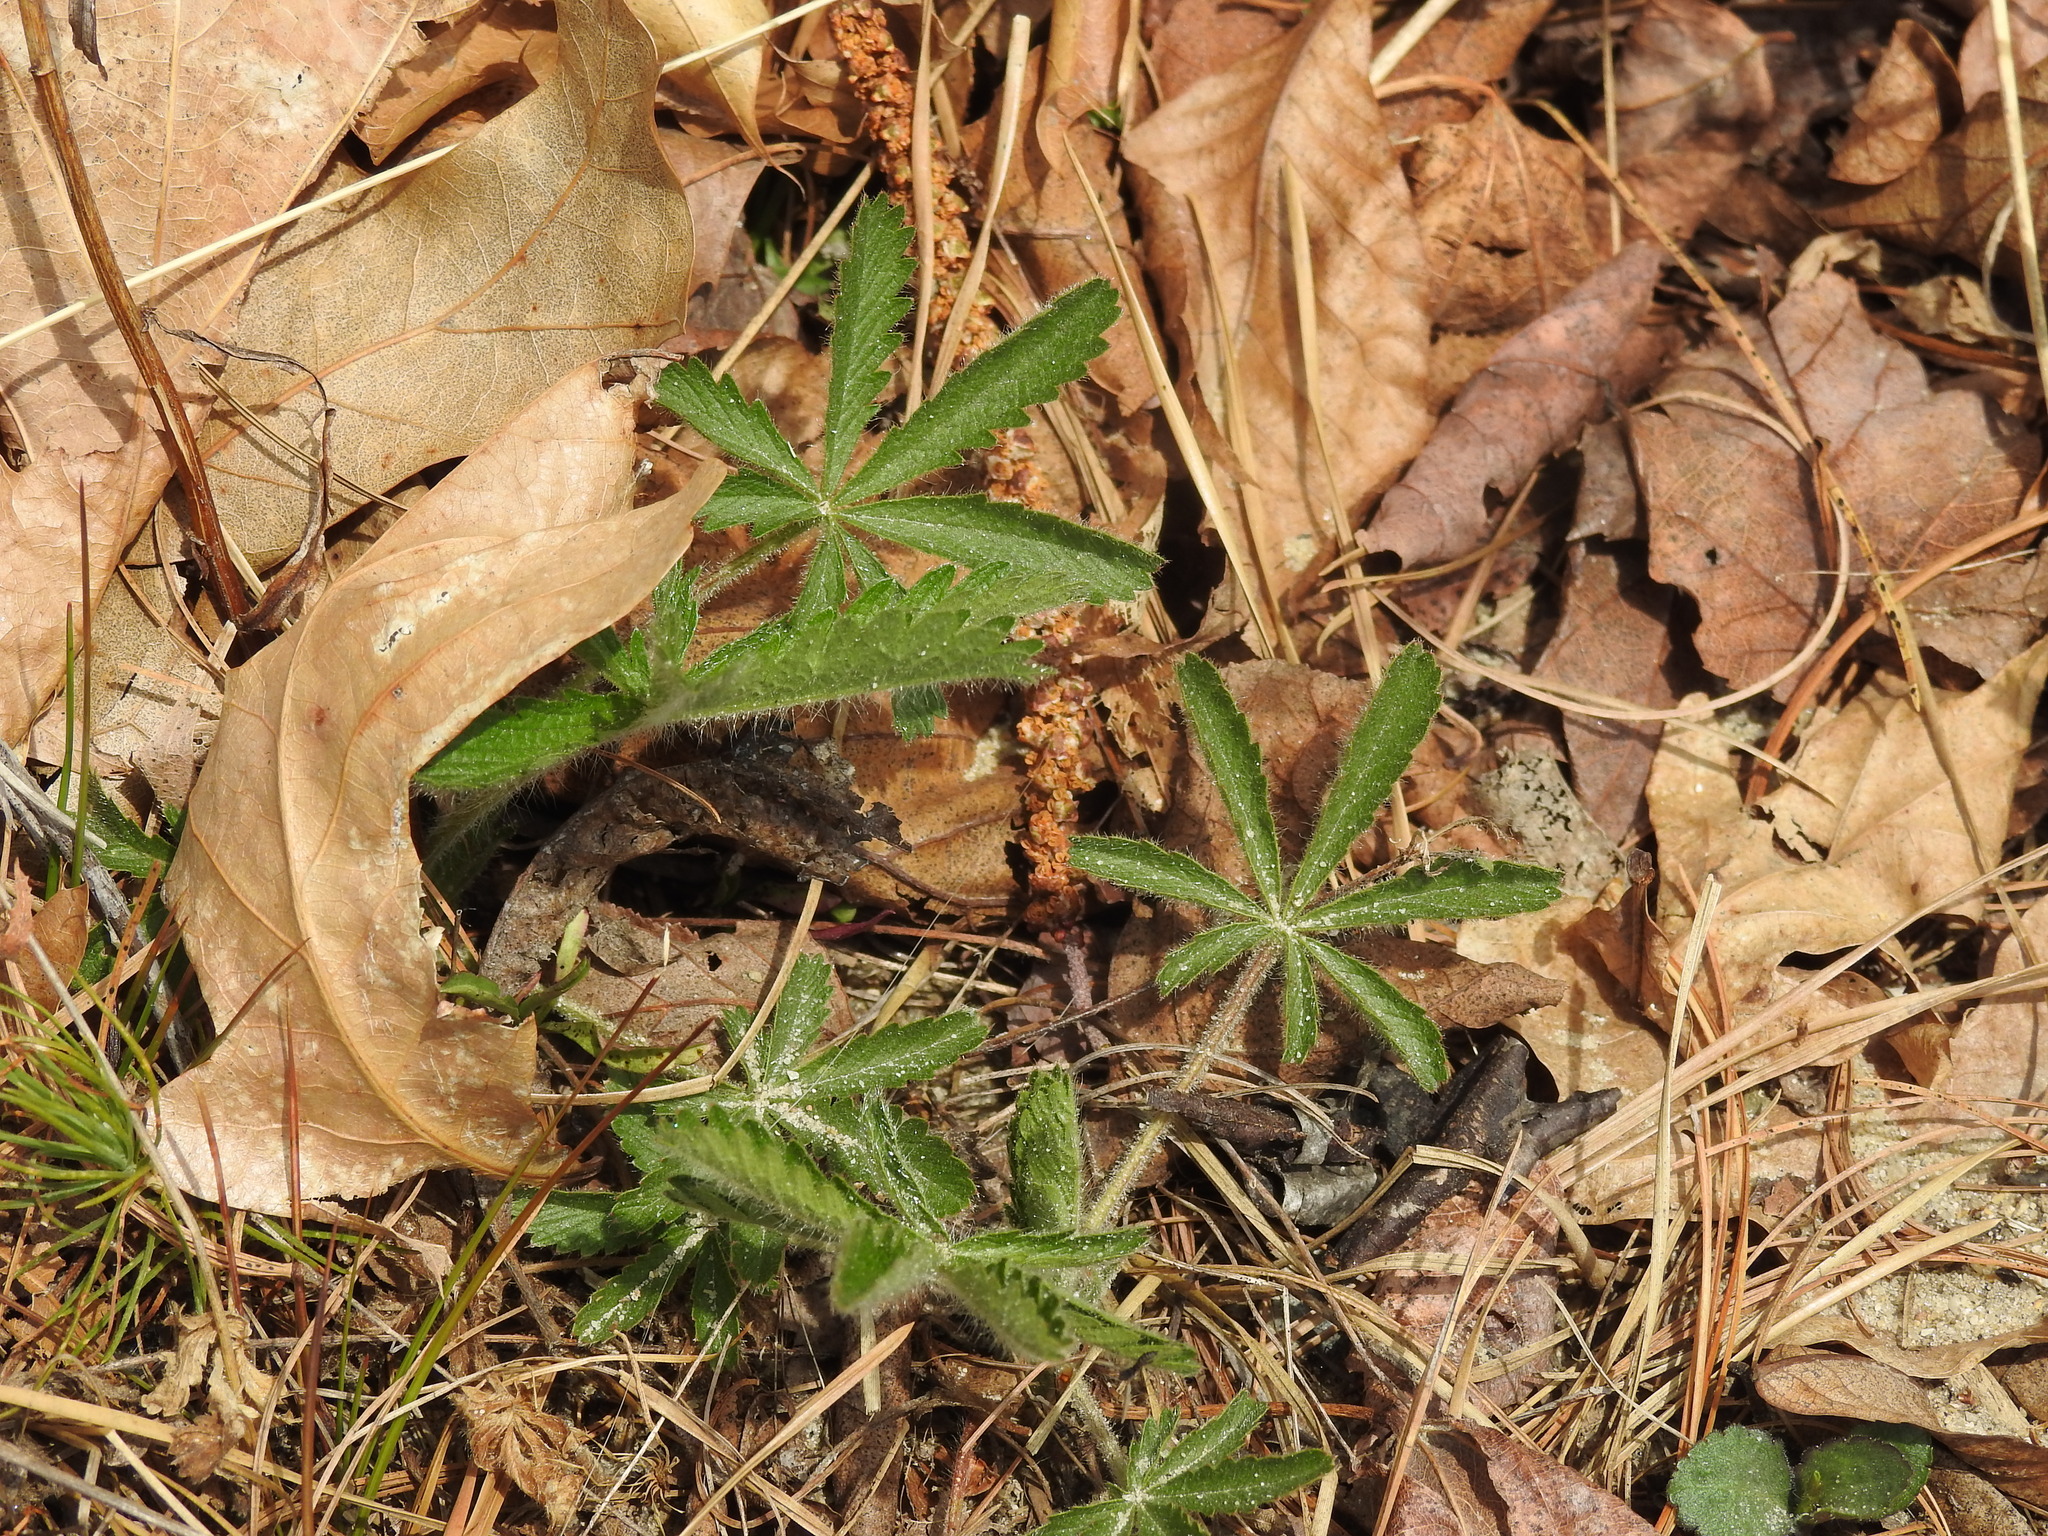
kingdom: Plantae
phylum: Tracheophyta
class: Magnoliopsida
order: Rosales
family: Rosaceae
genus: Potentilla
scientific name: Potentilla recta
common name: Sulphur cinquefoil
